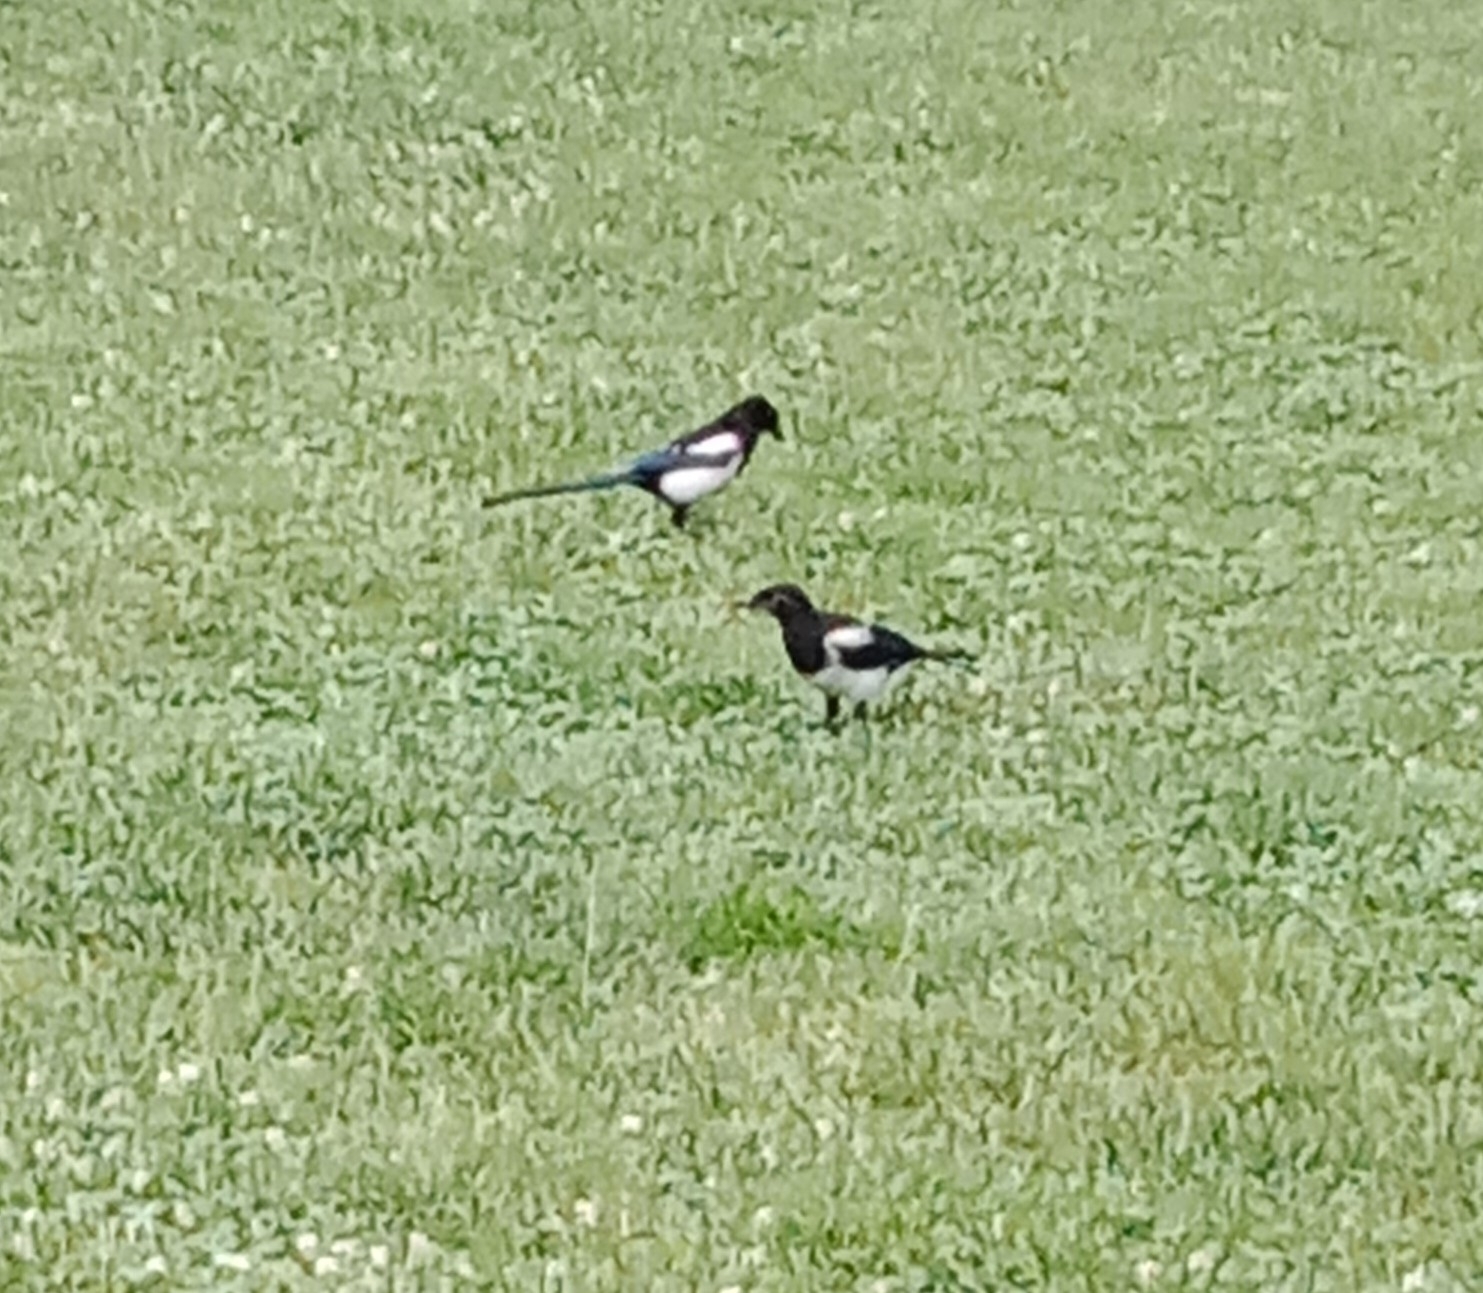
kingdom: Animalia
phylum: Chordata
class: Aves
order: Passeriformes
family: Corvidae
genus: Pica
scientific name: Pica pica
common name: Eurasian magpie
